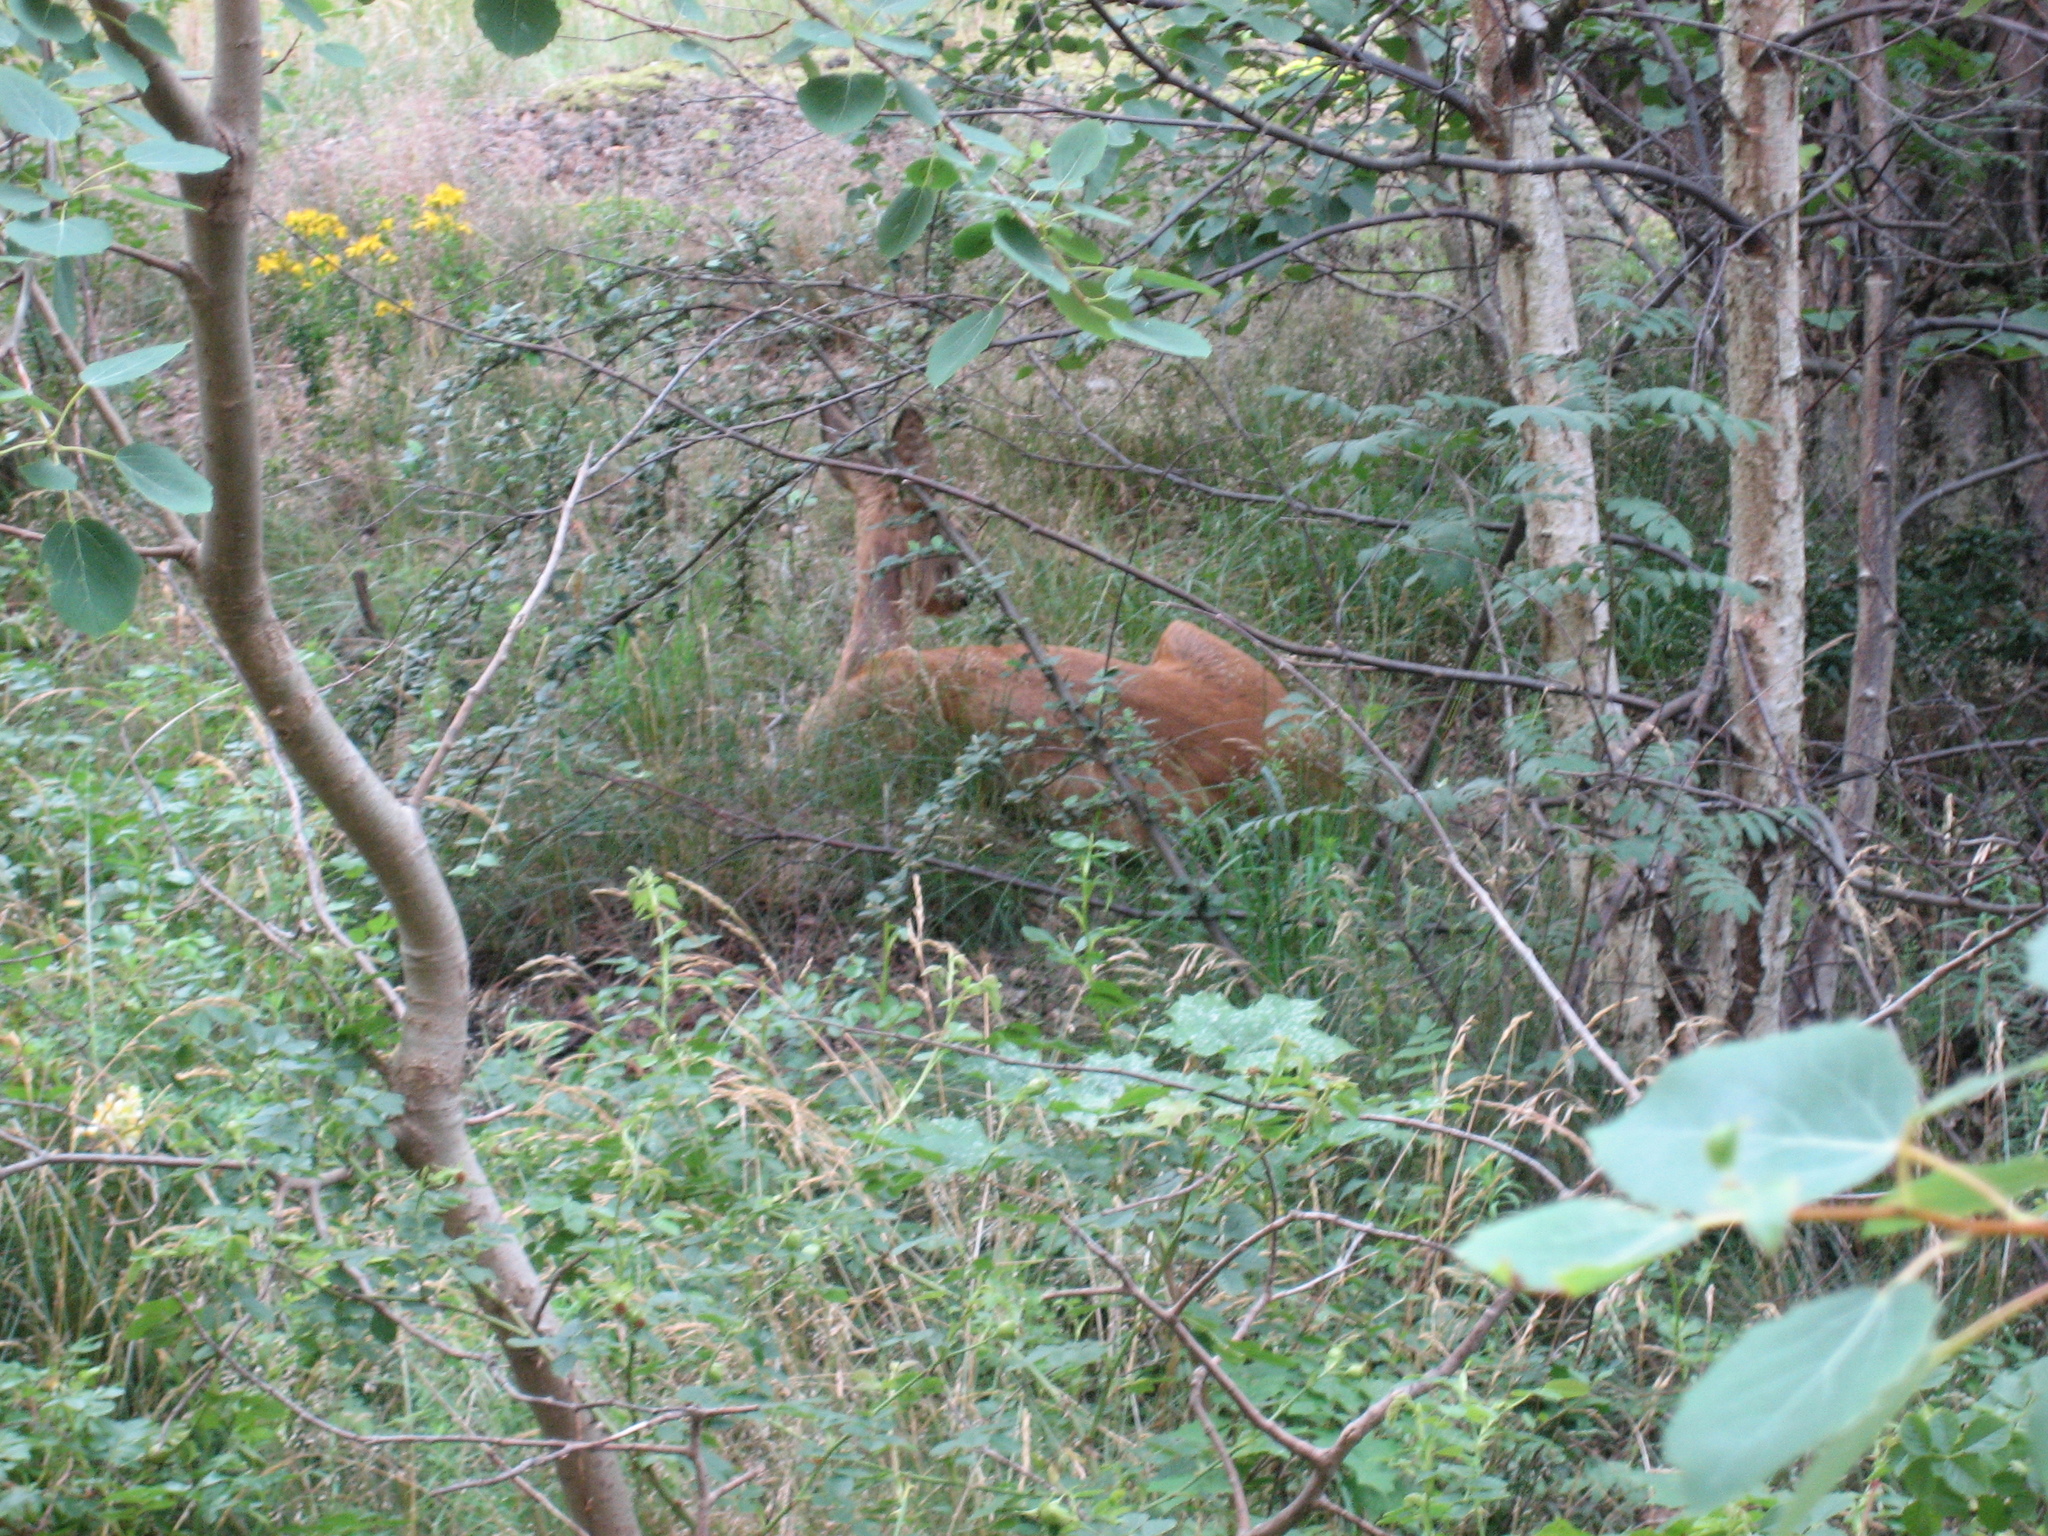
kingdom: Animalia
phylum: Chordata
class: Mammalia
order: Artiodactyla
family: Cervidae
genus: Capreolus
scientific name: Capreolus capreolus
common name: Western roe deer
